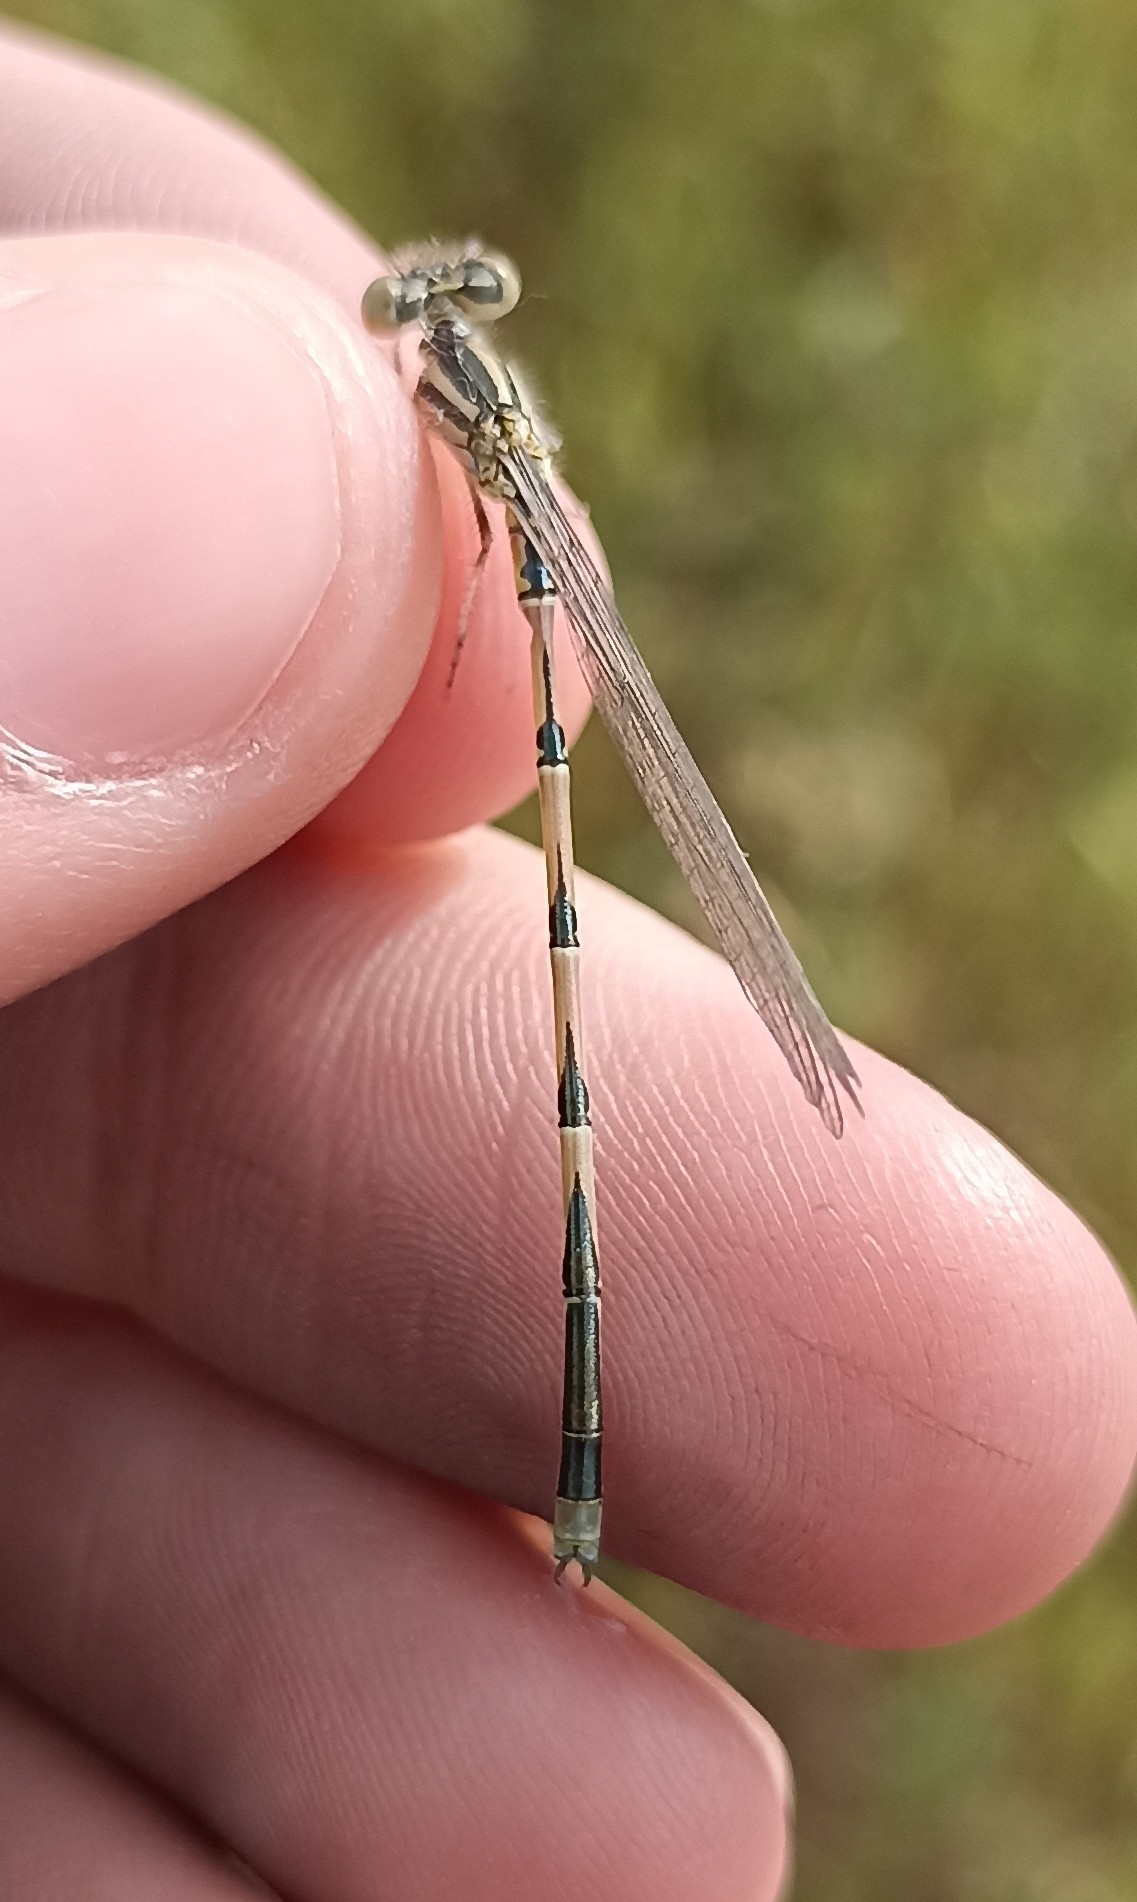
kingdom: Animalia
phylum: Arthropoda
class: Insecta
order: Odonata
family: Coenagrionidae
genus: Erythromma
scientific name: Erythromma lindenii
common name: Blue-eye
